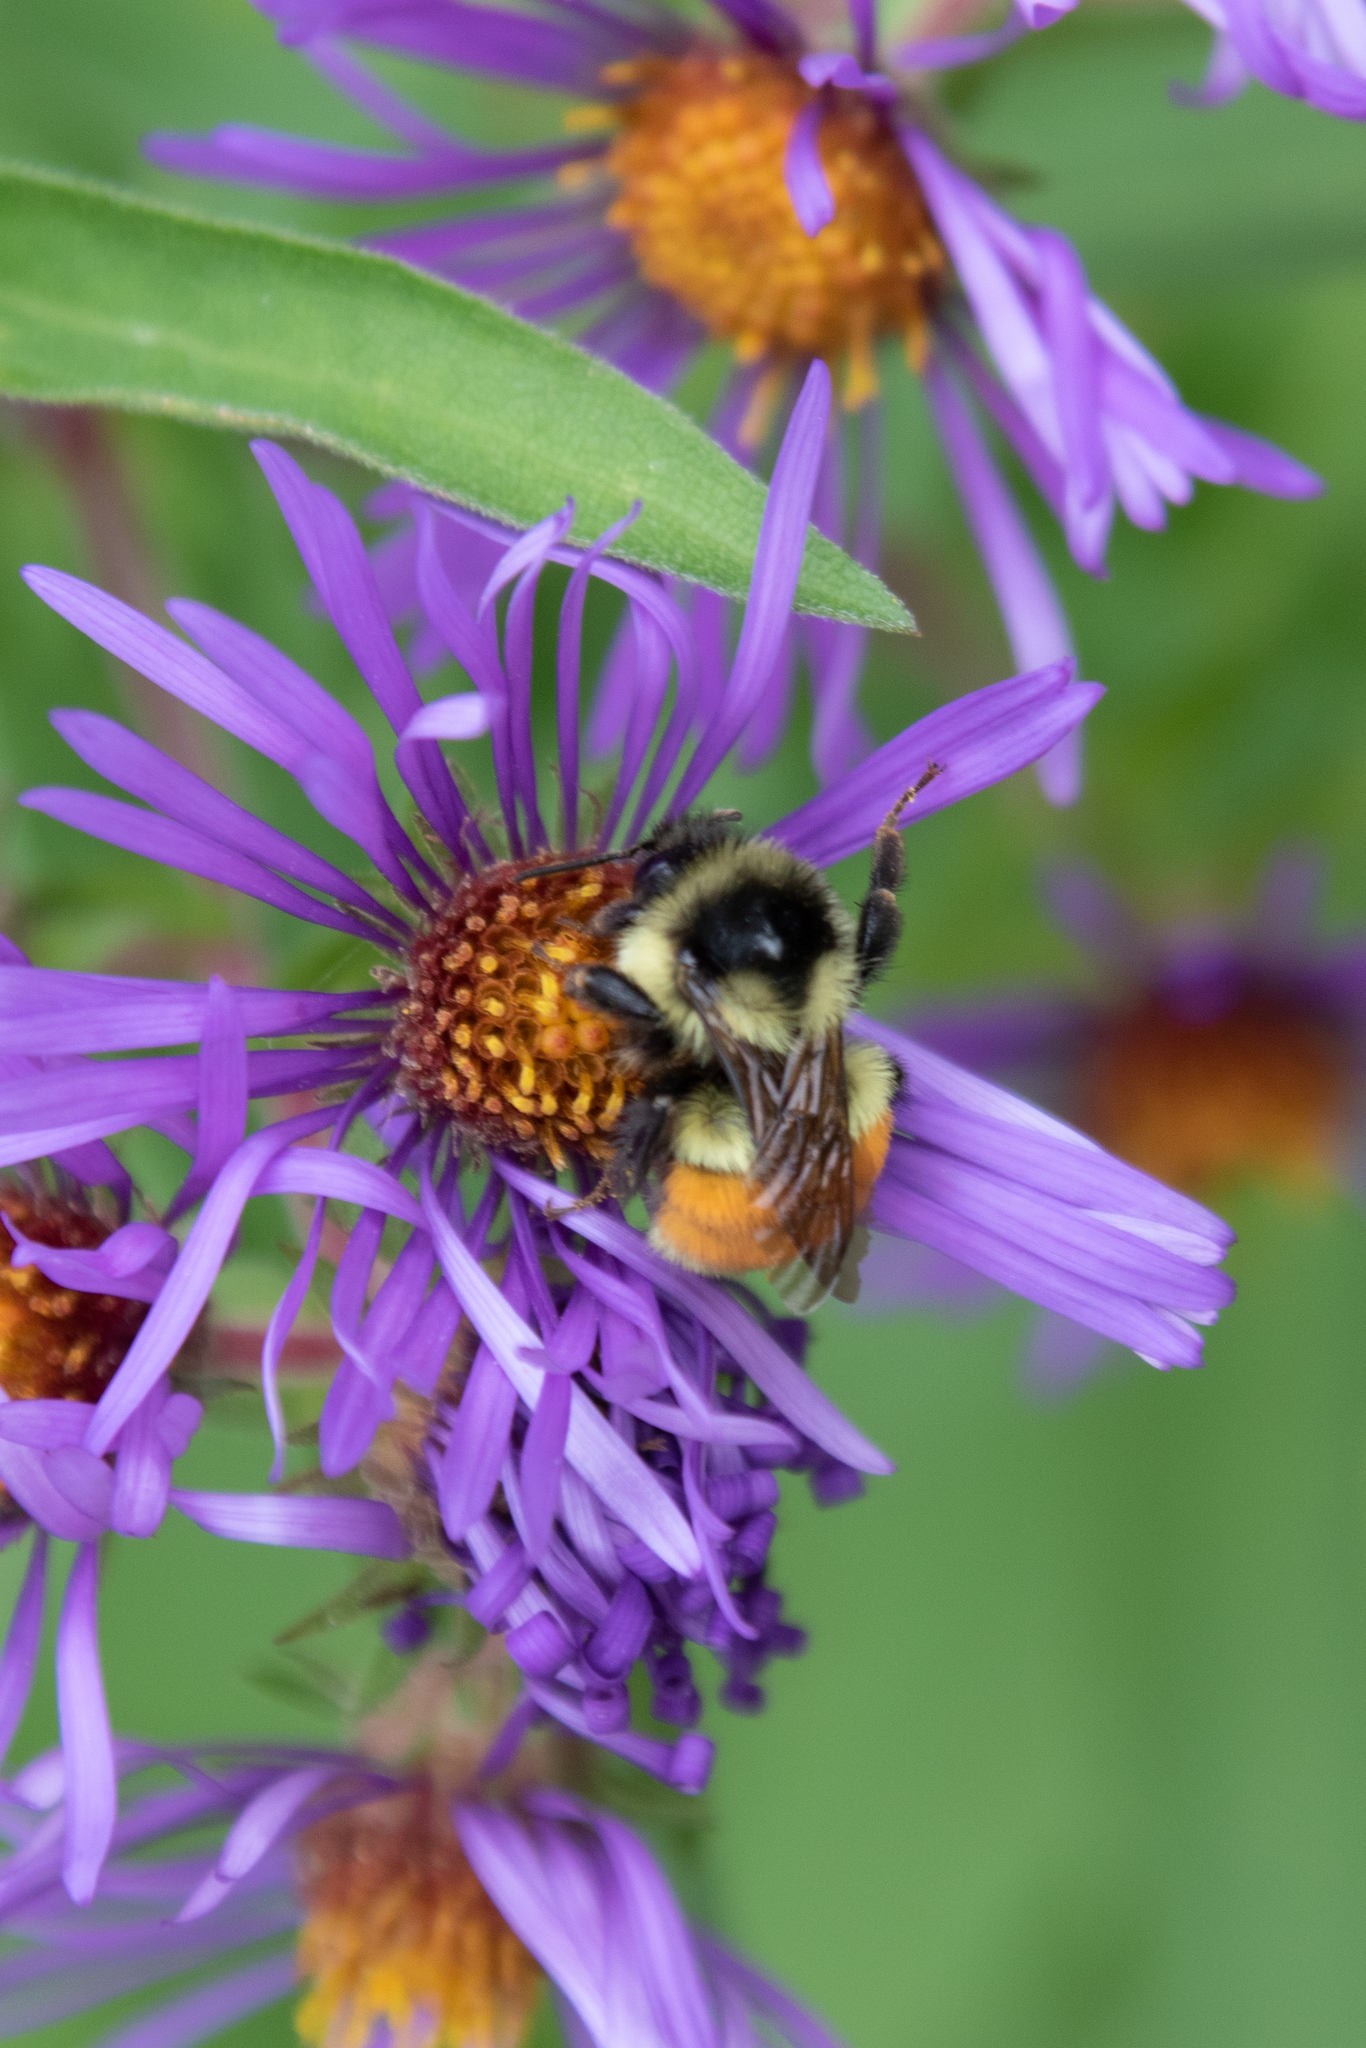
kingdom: Animalia
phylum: Arthropoda
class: Insecta
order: Hymenoptera
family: Apidae
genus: Bombus
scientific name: Bombus ternarius
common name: Tri-colored bumble bee
